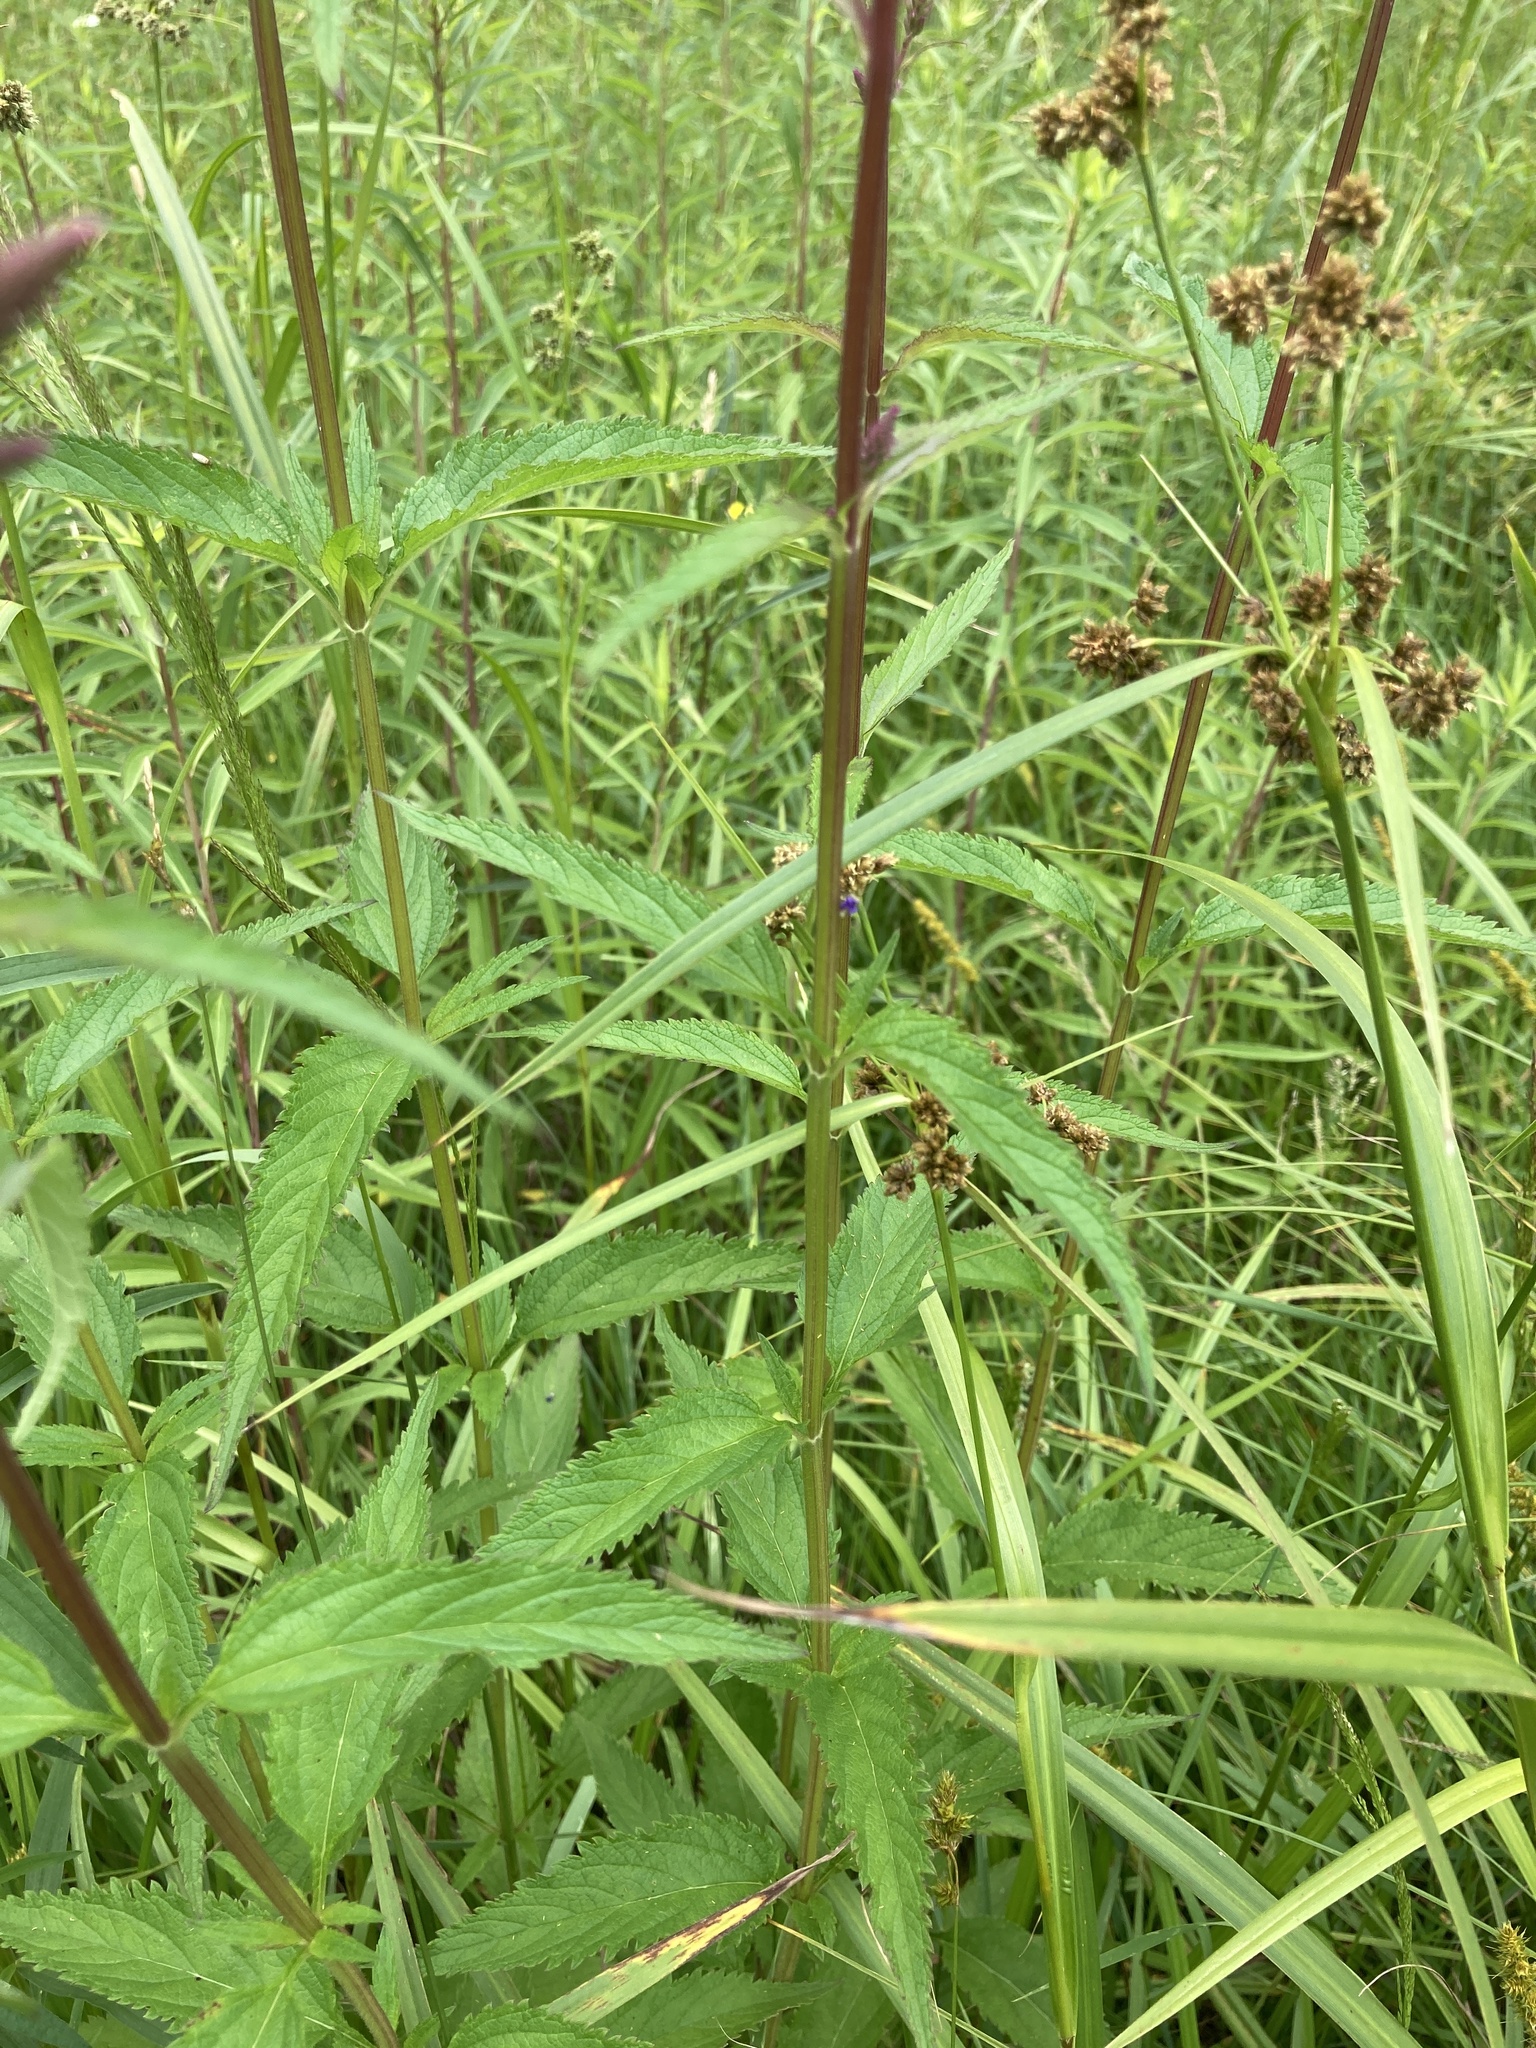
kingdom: Plantae
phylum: Tracheophyta
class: Magnoliopsida
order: Lamiales
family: Verbenaceae
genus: Verbena
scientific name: Verbena hastata
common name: American blue vervain
